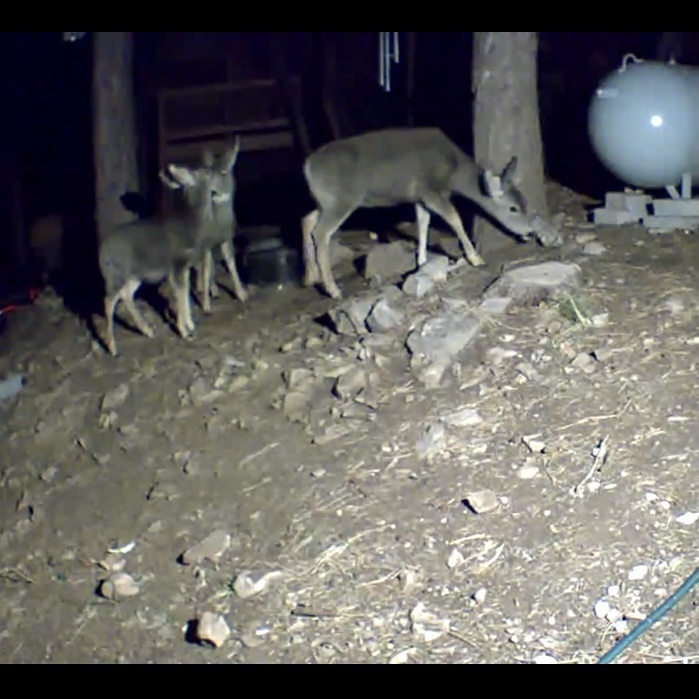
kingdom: Animalia
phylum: Chordata
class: Mammalia
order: Artiodactyla
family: Cervidae
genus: Odocoileus
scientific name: Odocoileus hemionus
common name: Mule deer
